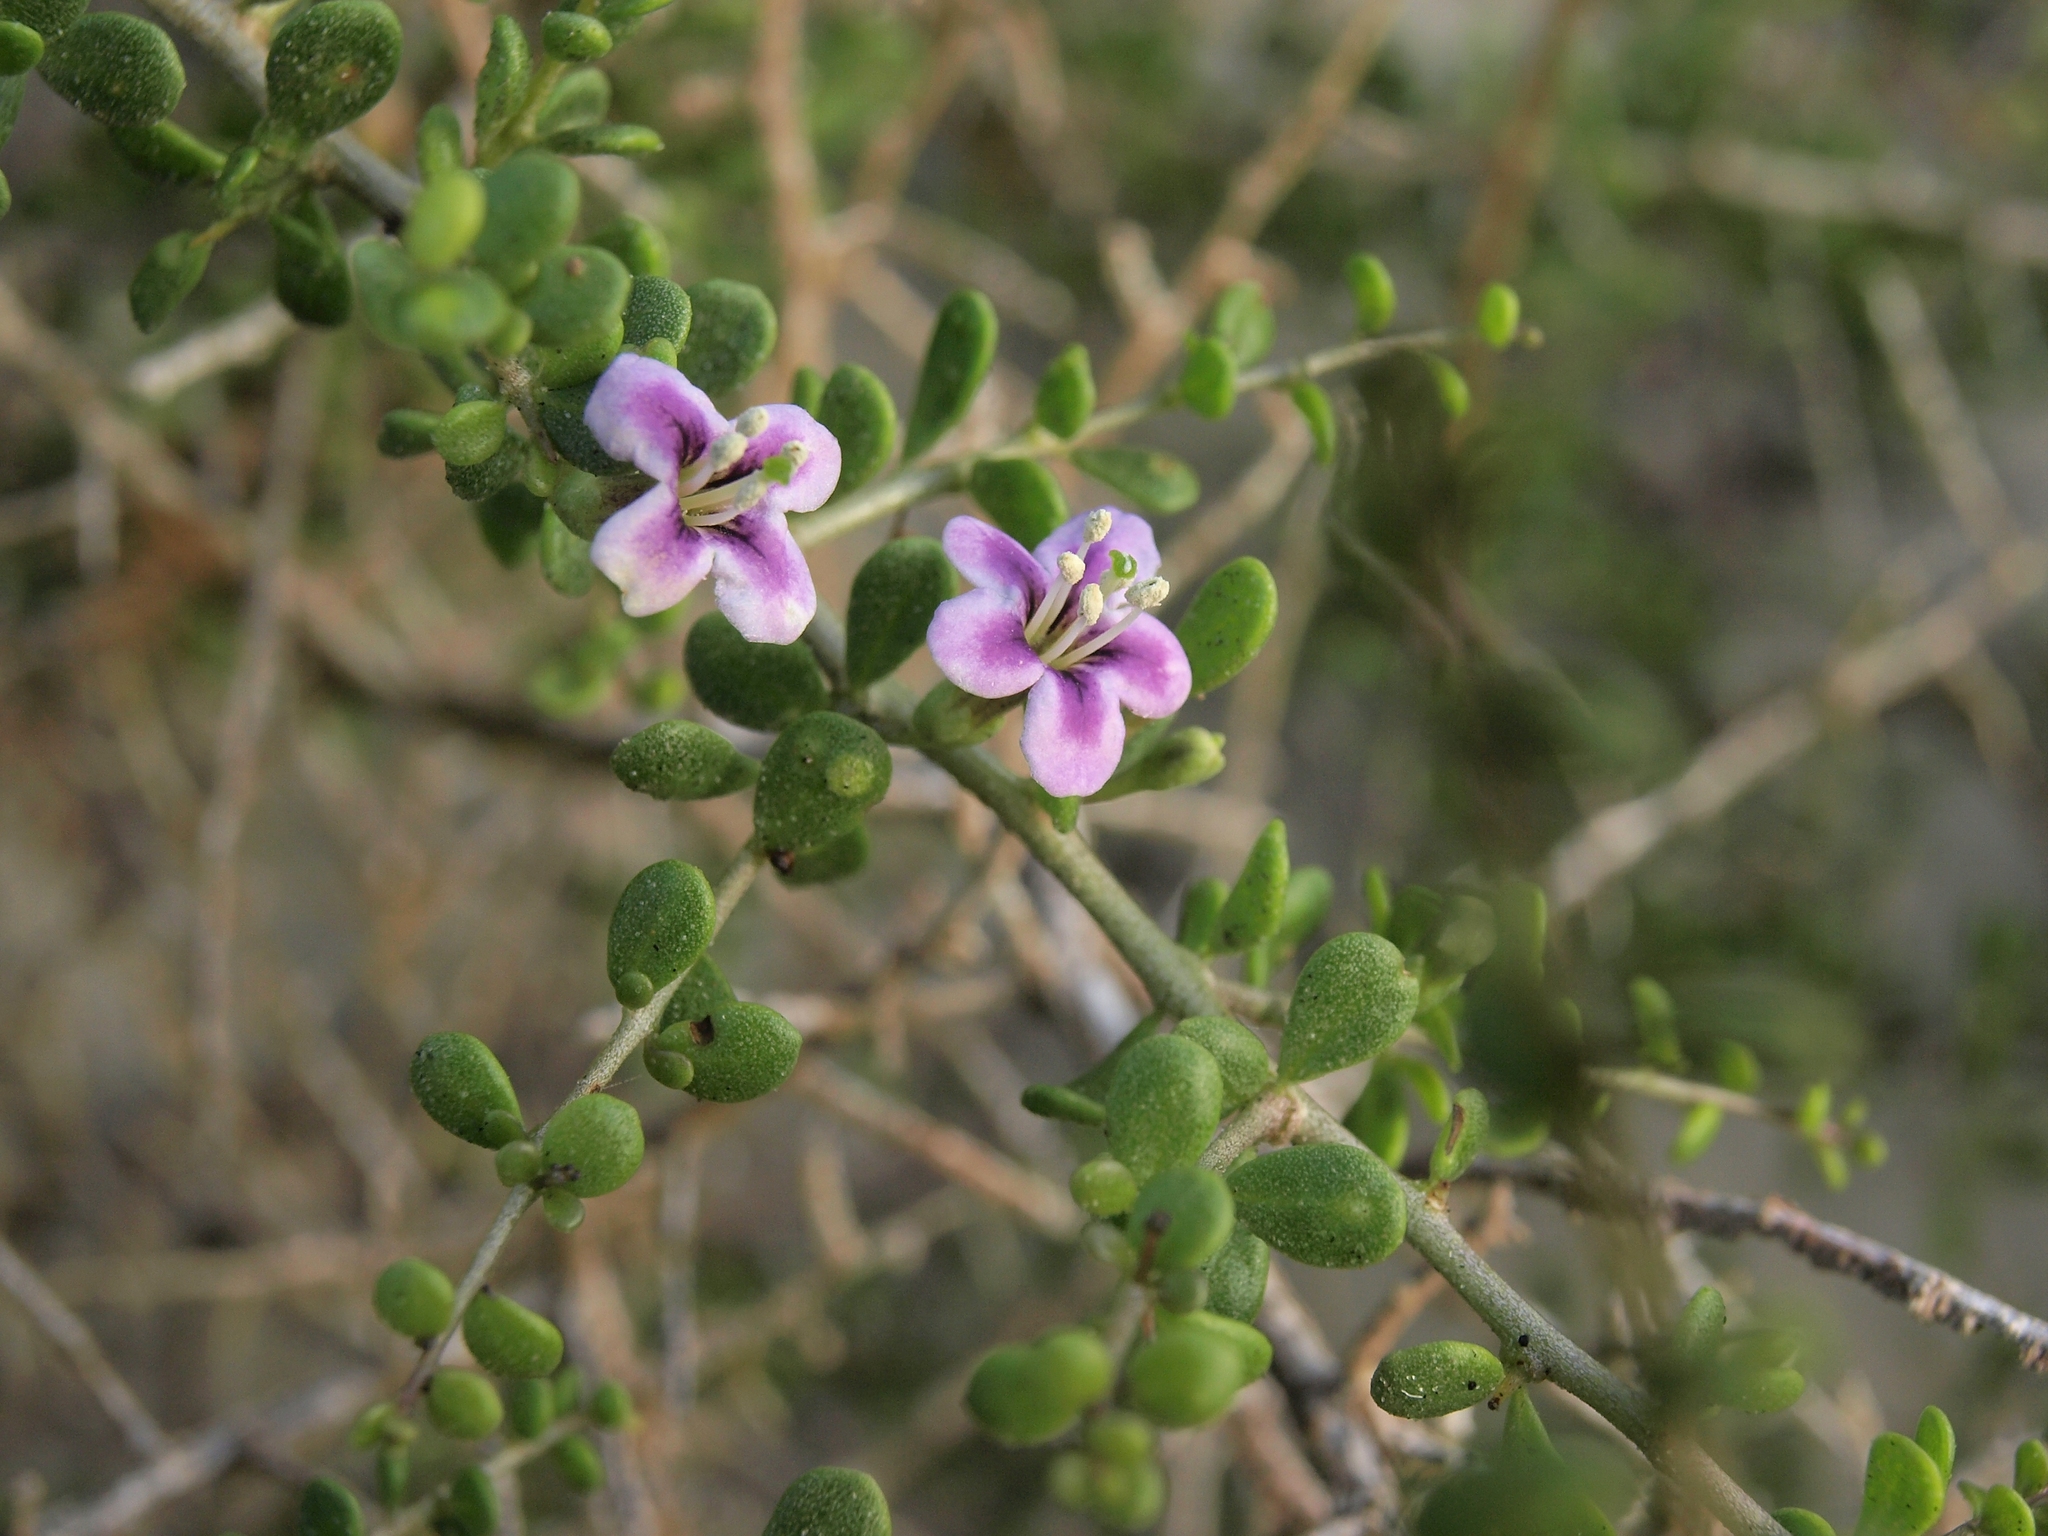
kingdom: Plantae
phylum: Tracheophyta
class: Magnoliopsida
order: Solanales
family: Solanaceae
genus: Lycium
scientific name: Lycium brevipes
